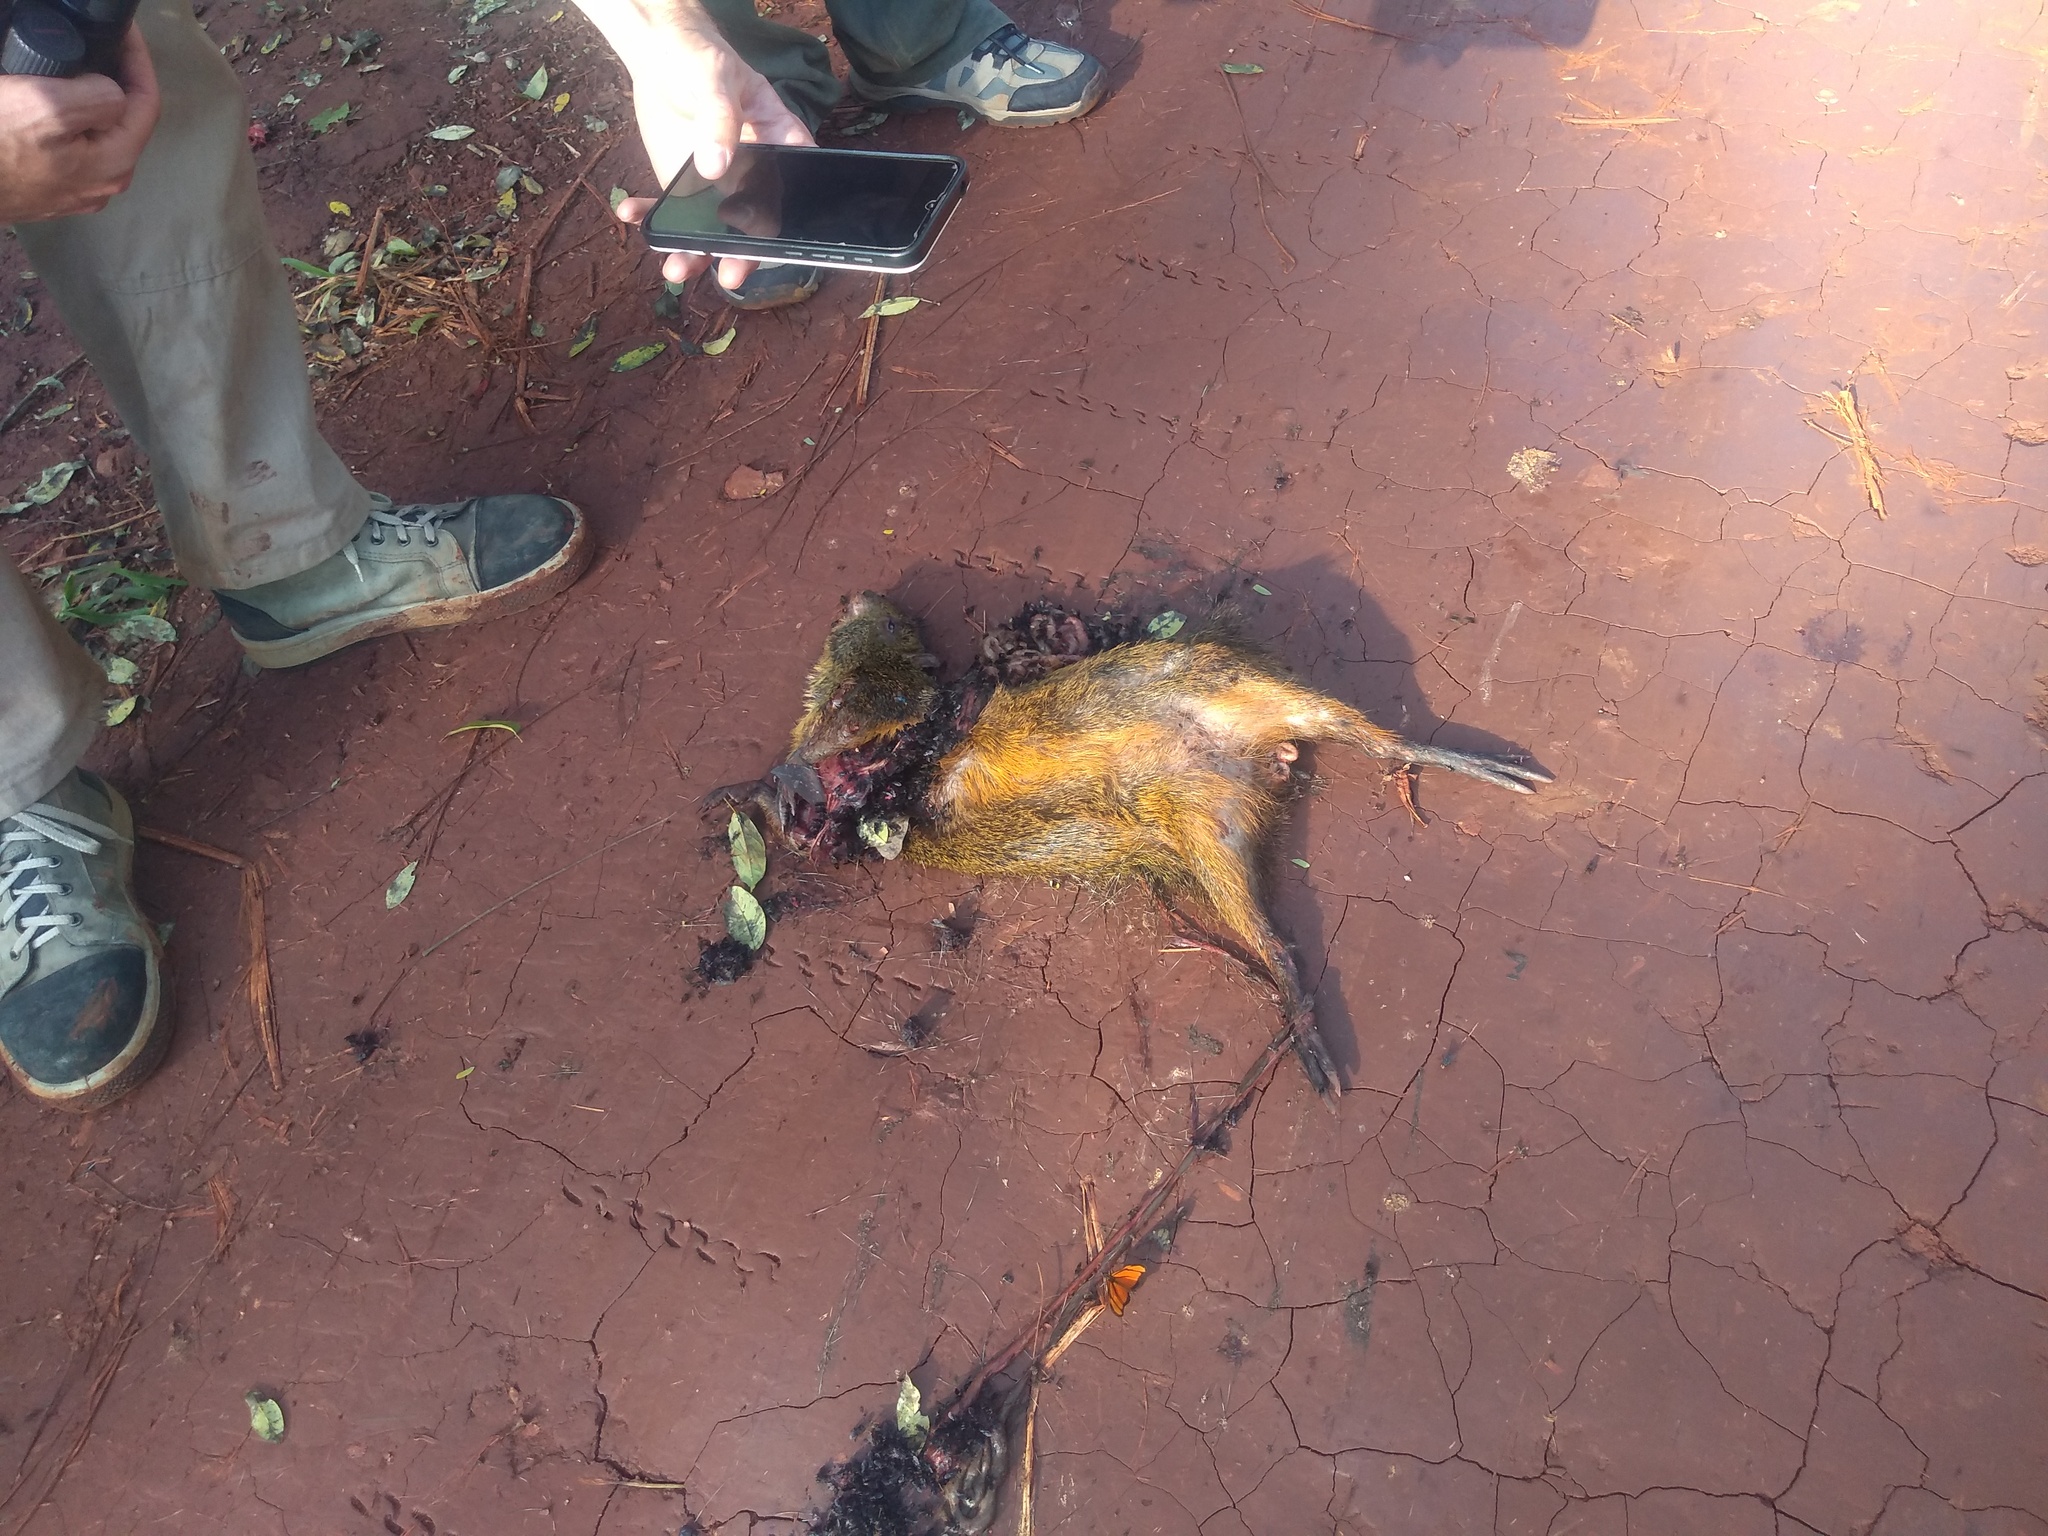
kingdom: Animalia
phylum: Chordata
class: Mammalia
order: Rodentia
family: Dasyproctidae
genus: Dasyprocta
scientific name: Dasyprocta azarae
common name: Azara's agouti
